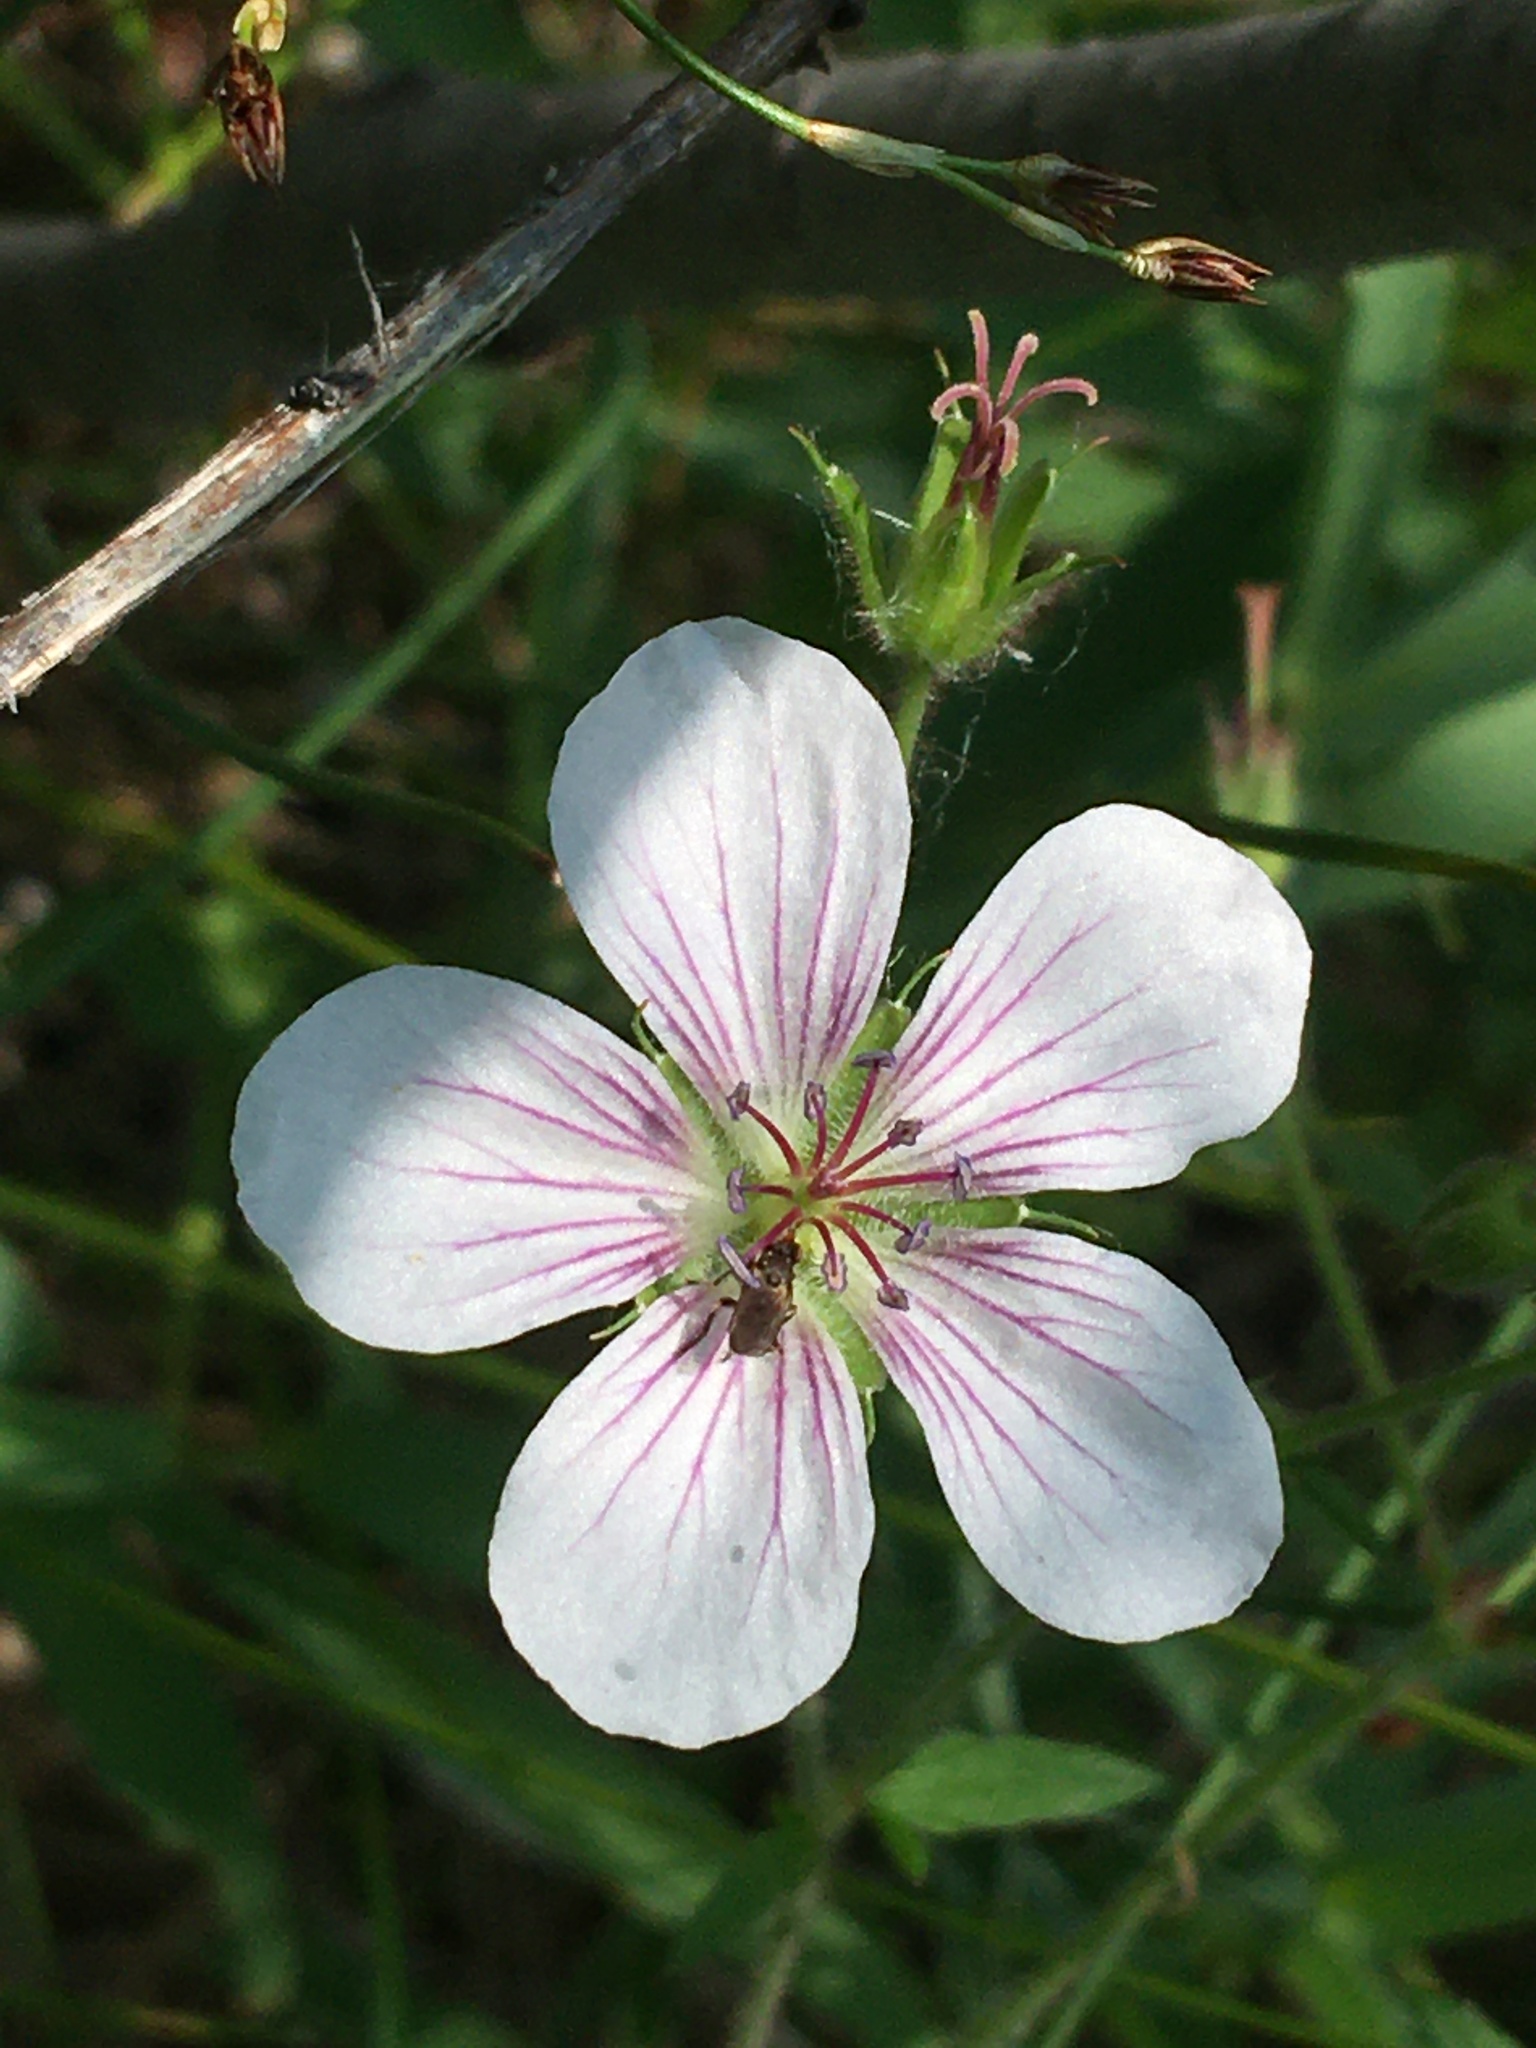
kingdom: Plantae
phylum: Tracheophyta
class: Magnoliopsida
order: Geraniales
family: Geraniaceae
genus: Geranium
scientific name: Geranium richardsonii
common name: Richardson's crane's-bill
